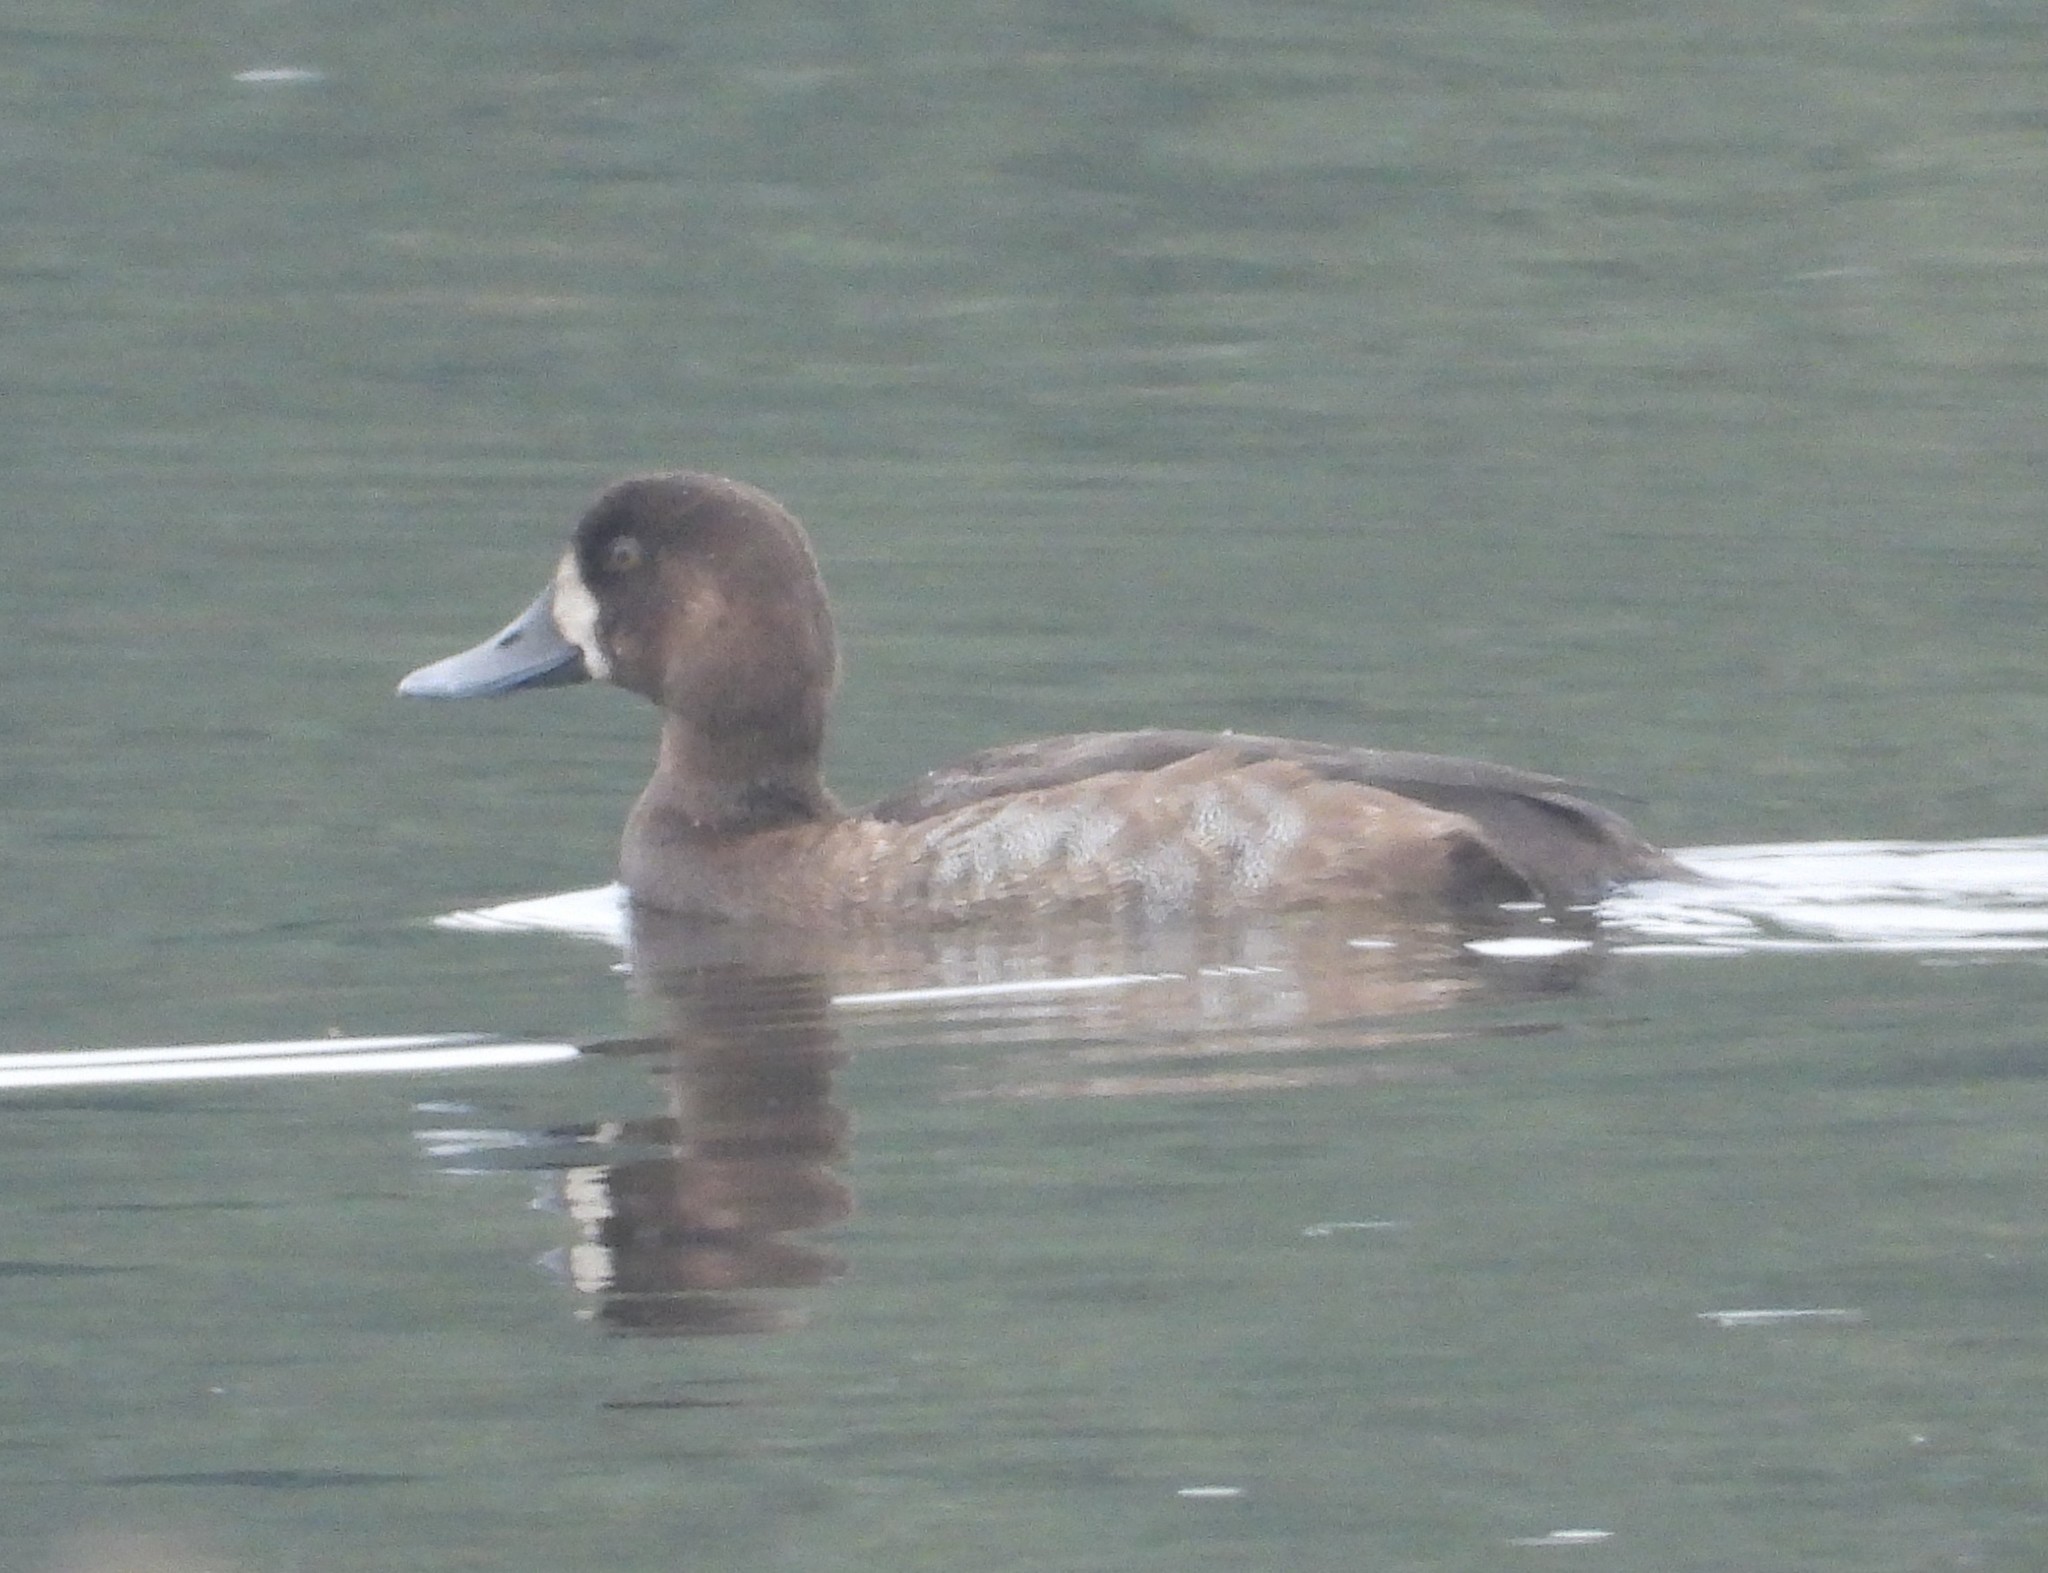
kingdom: Animalia
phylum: Chordata
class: Aves
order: Anseriformes
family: Anatidae
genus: Aythya
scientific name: Aythya marila
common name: Greater scaup
